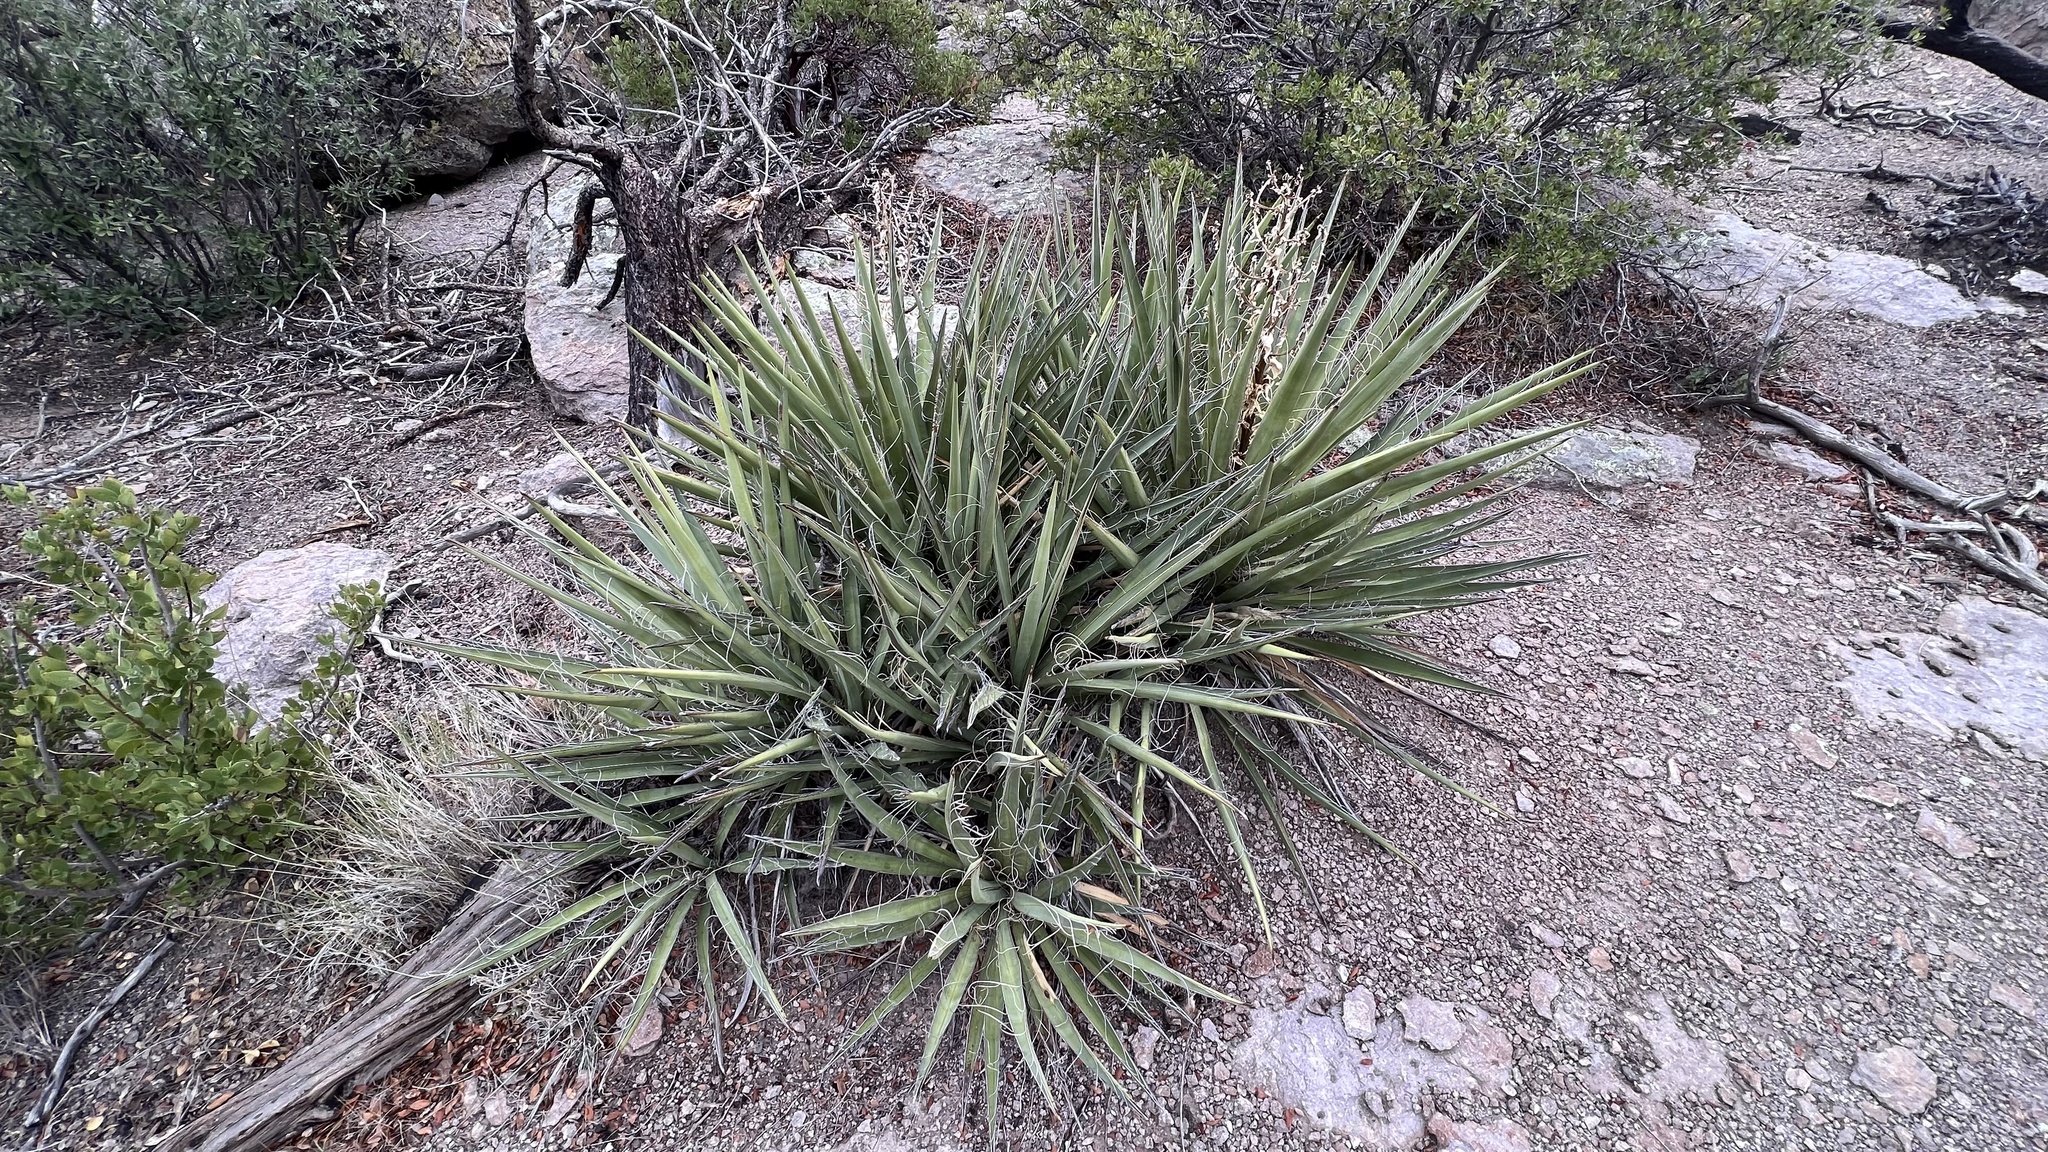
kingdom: Plantae
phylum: Tracheophyta
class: Liliopsida
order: Asparagales
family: Asparagaceae
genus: Yucca
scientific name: Yucca baccata
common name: Banana yucca
